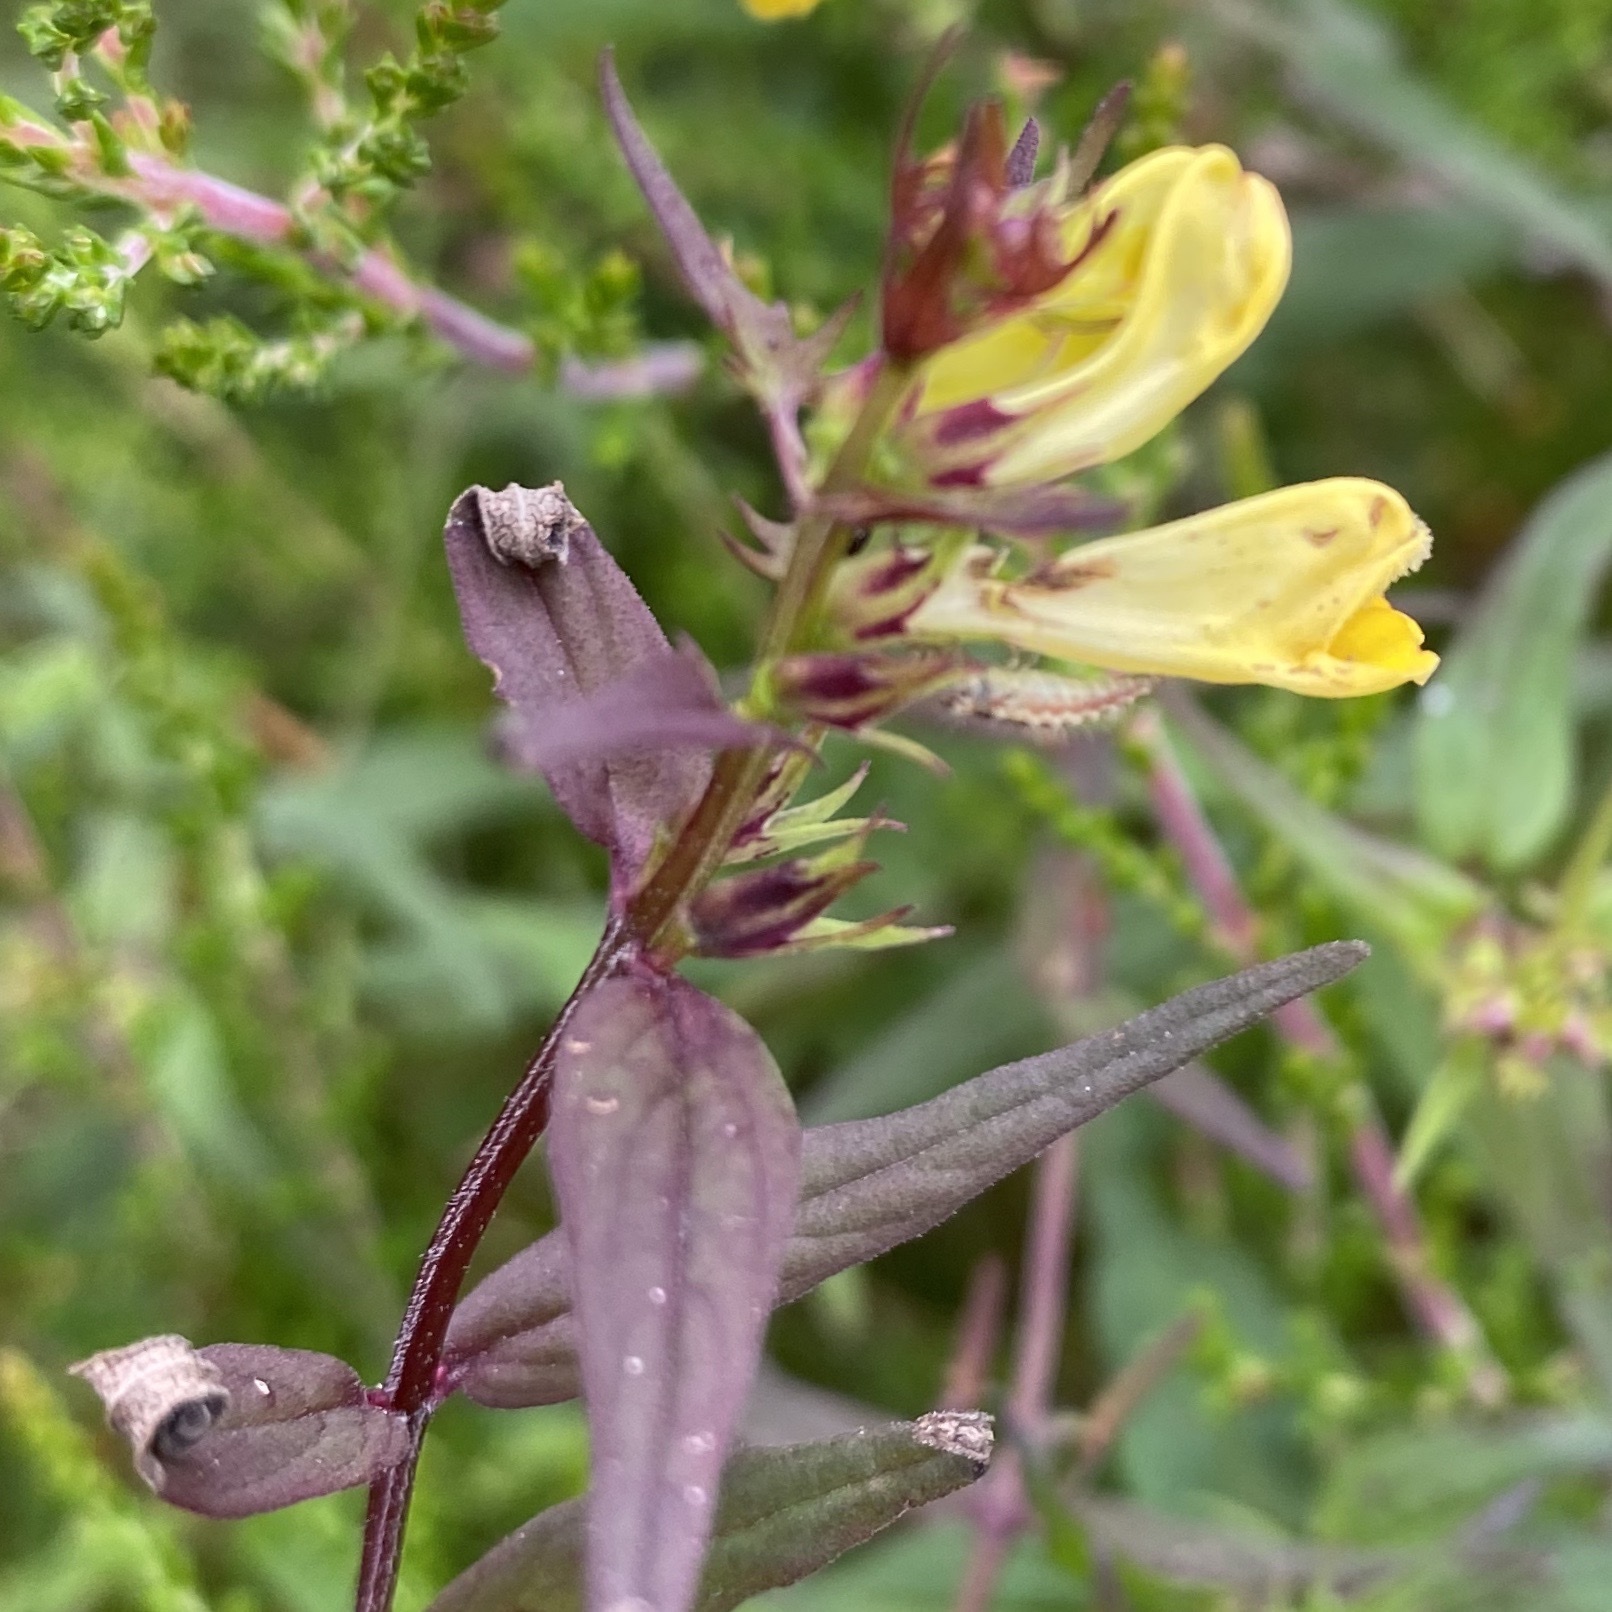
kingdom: Plantae
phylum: Tracheophyta
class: Magnoliopsida
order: Lamiales
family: Orobanchaceae
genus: Melampyrum
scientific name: Melampyrum pratense
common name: Common cow-wheat
